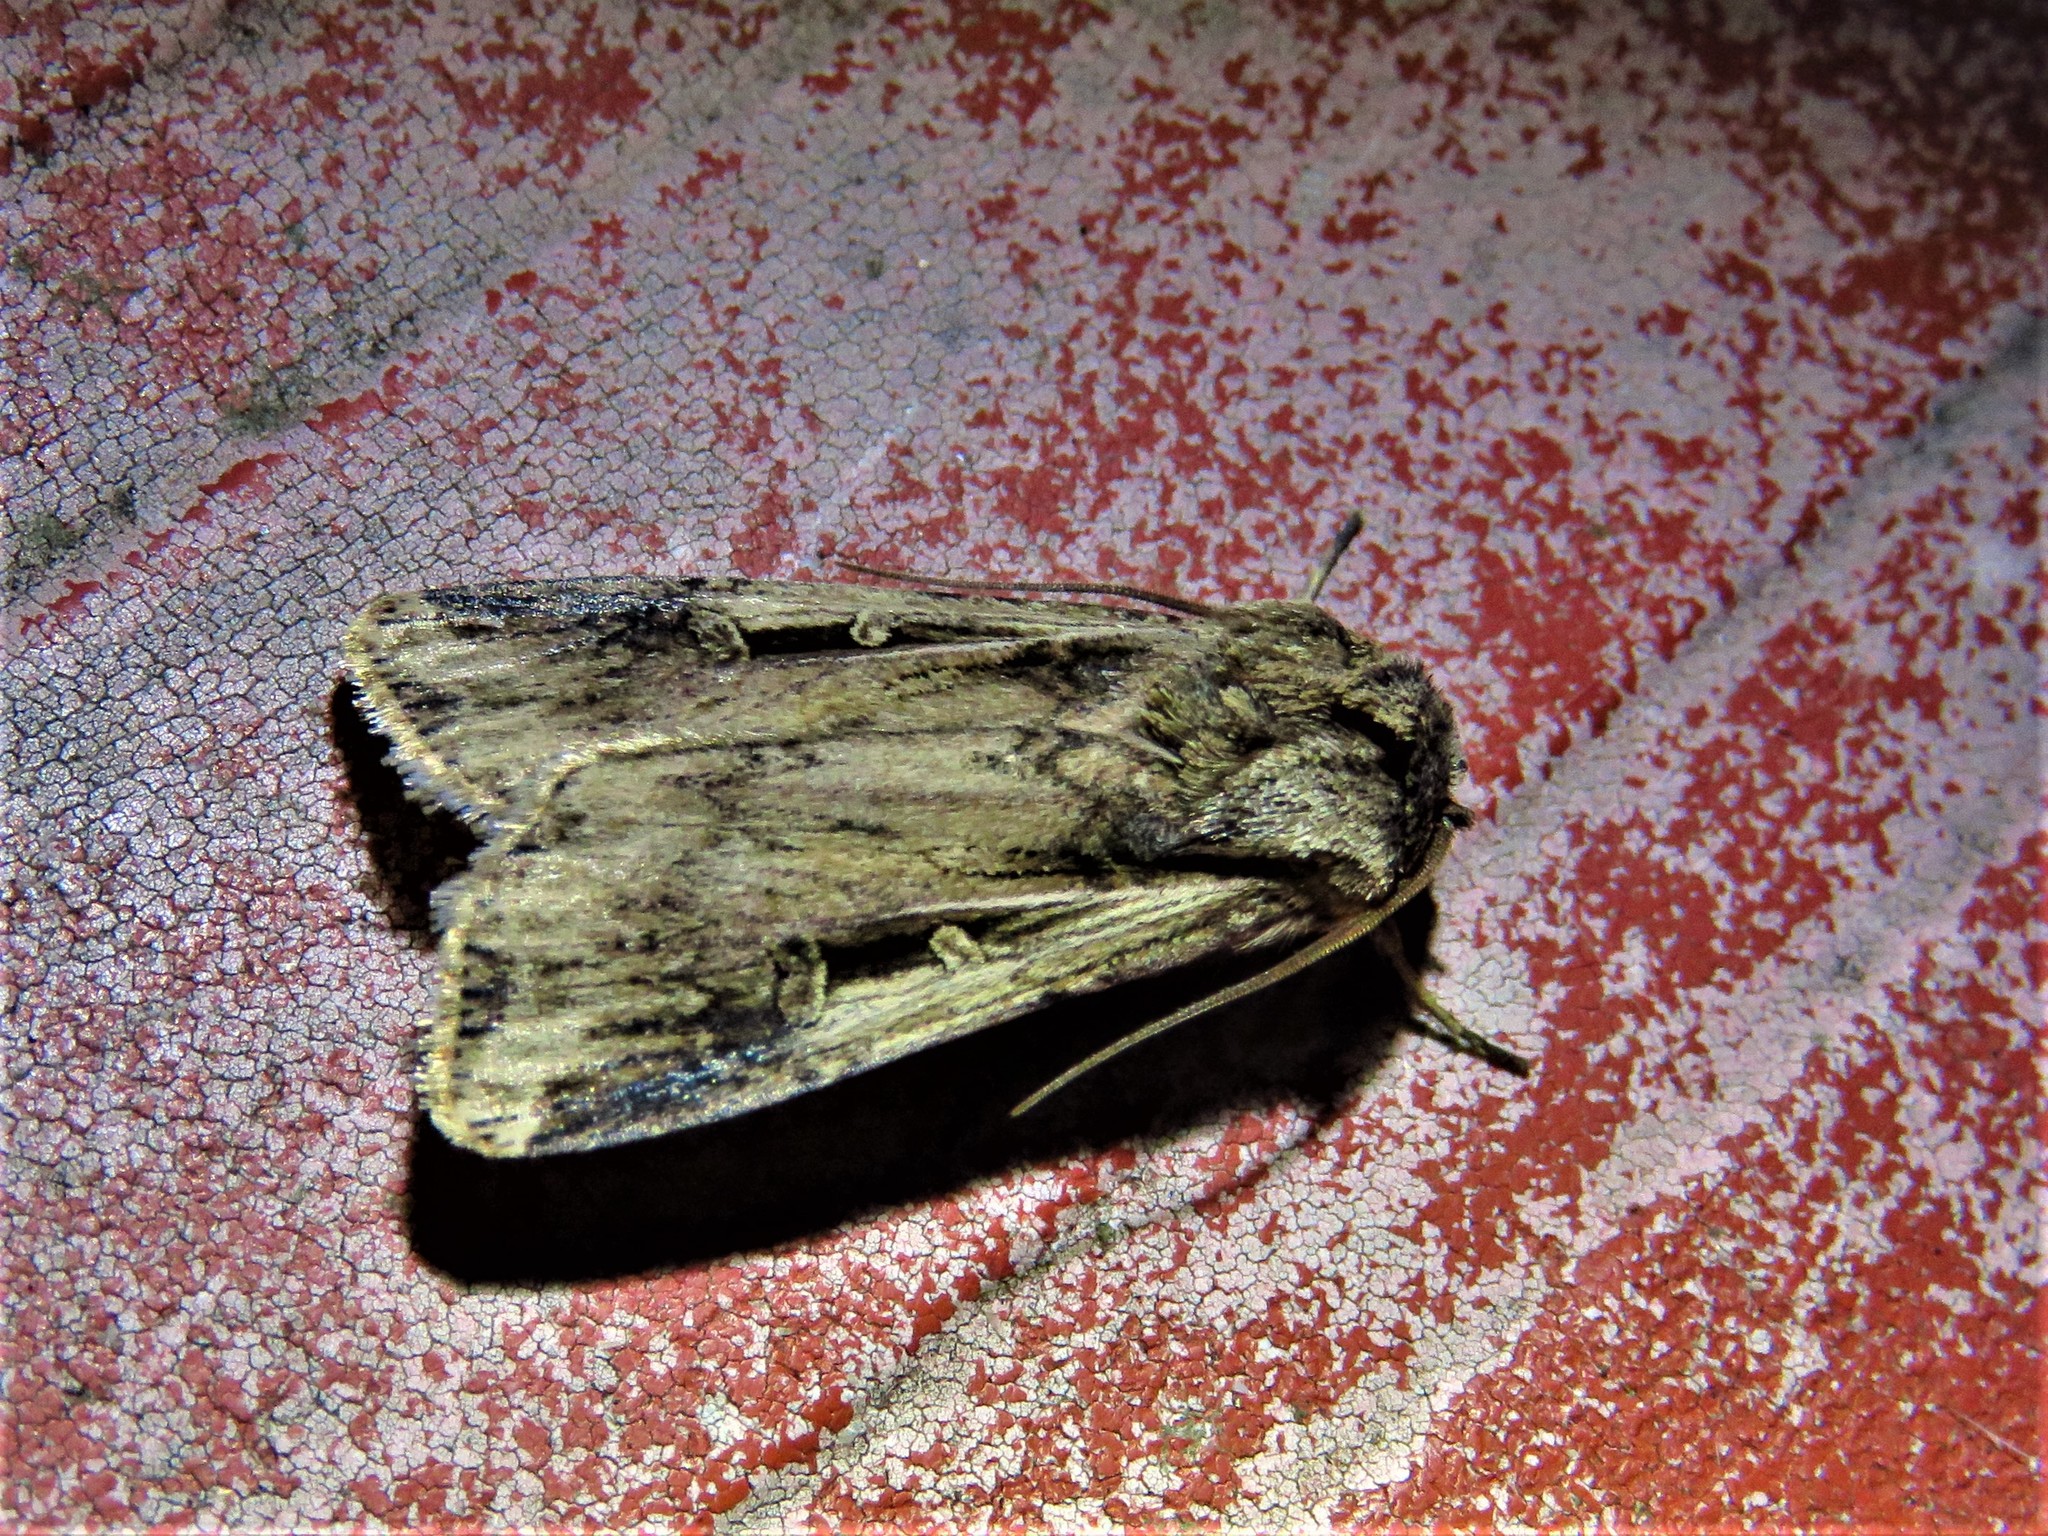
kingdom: Animalia
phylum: Arthropoda
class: Insecta
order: Lepidoptera
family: Noctuidae
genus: Feltia
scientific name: Feltia subterranea
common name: Granulate cutworm
